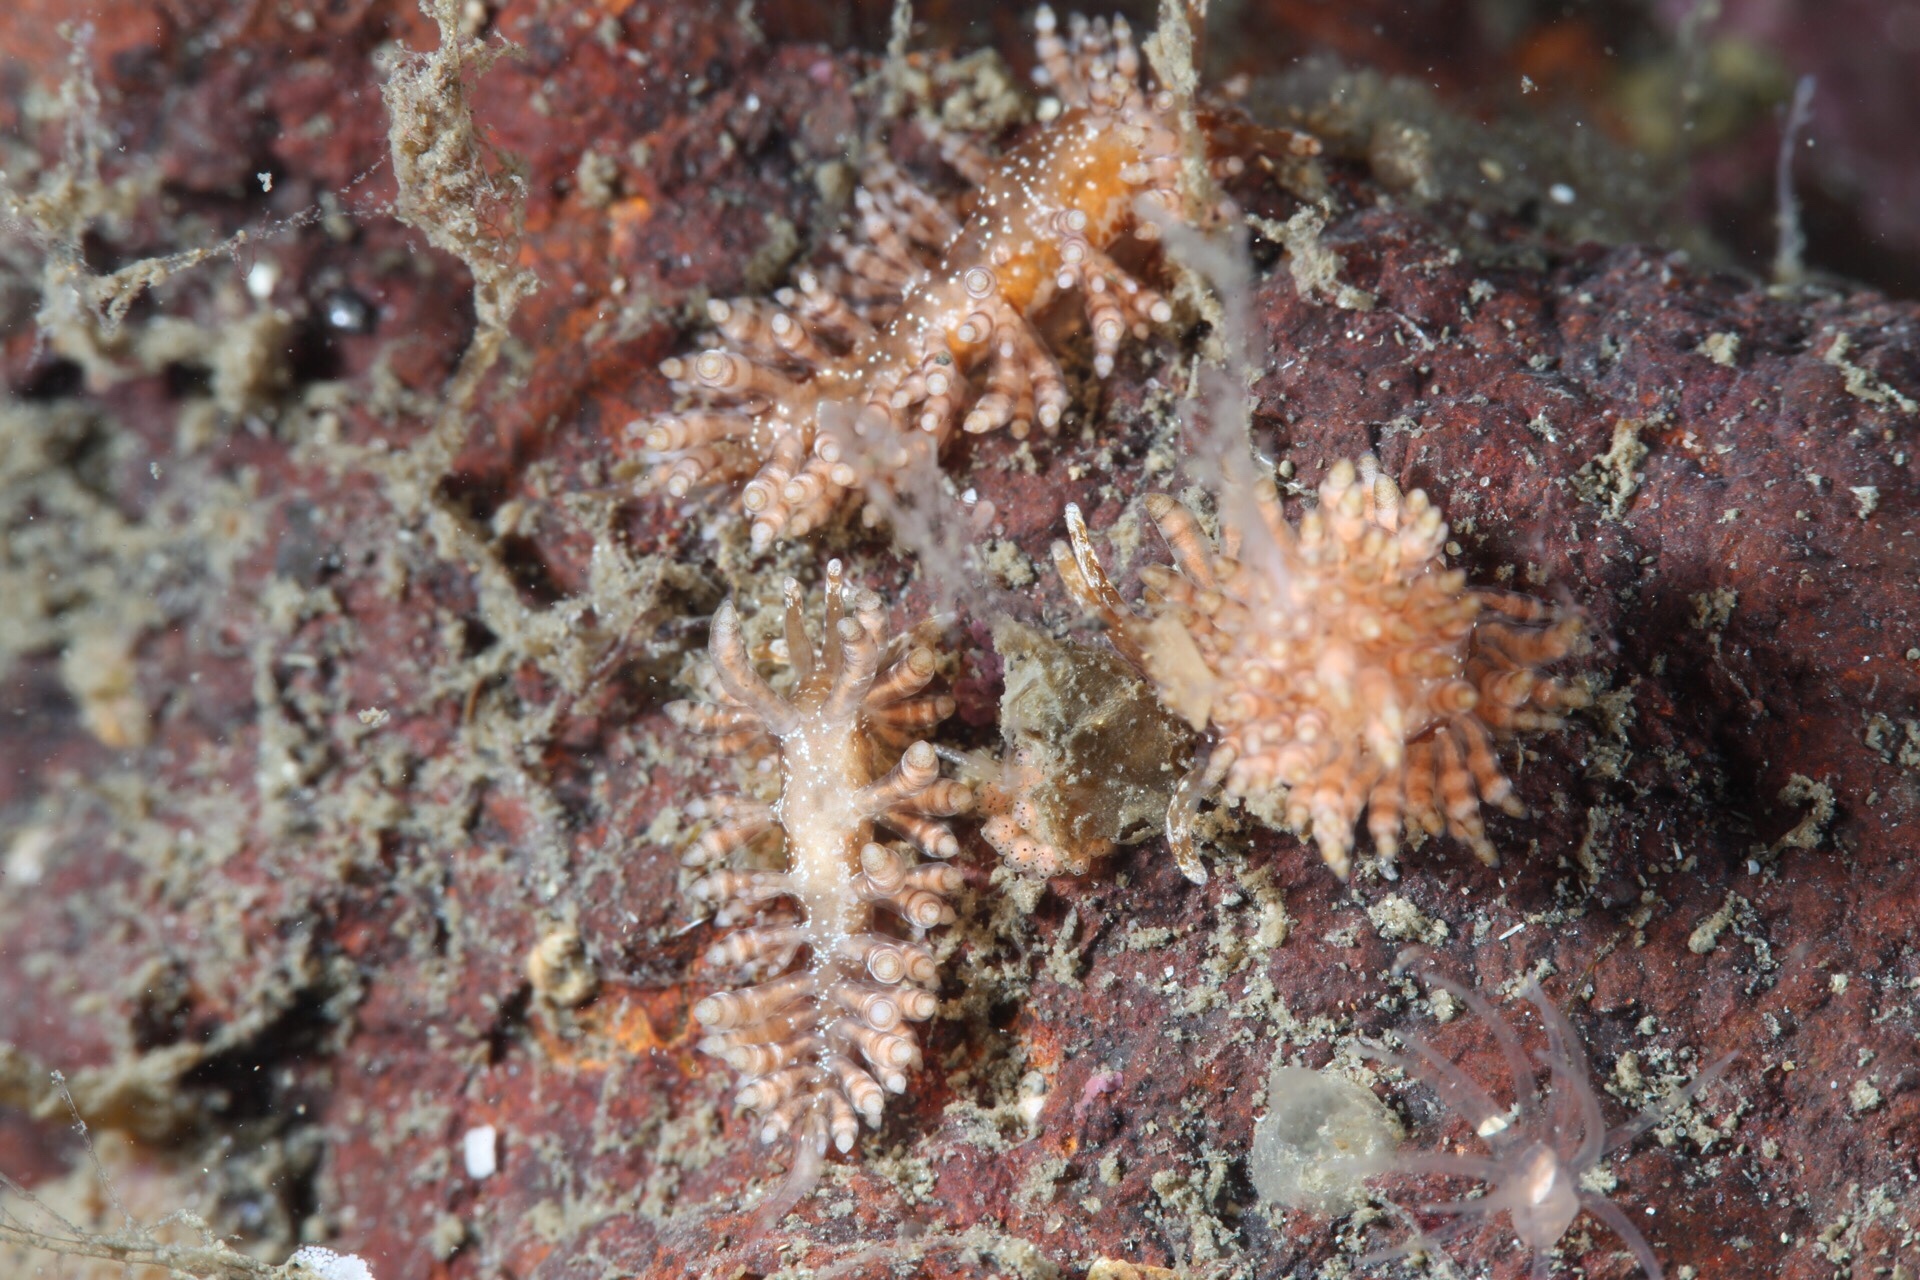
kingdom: Animalia
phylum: Mollusca
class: Gastropoda
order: Nudibranchia
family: Eubranchidae
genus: Eubranchus
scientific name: Eubranchus vittatus
